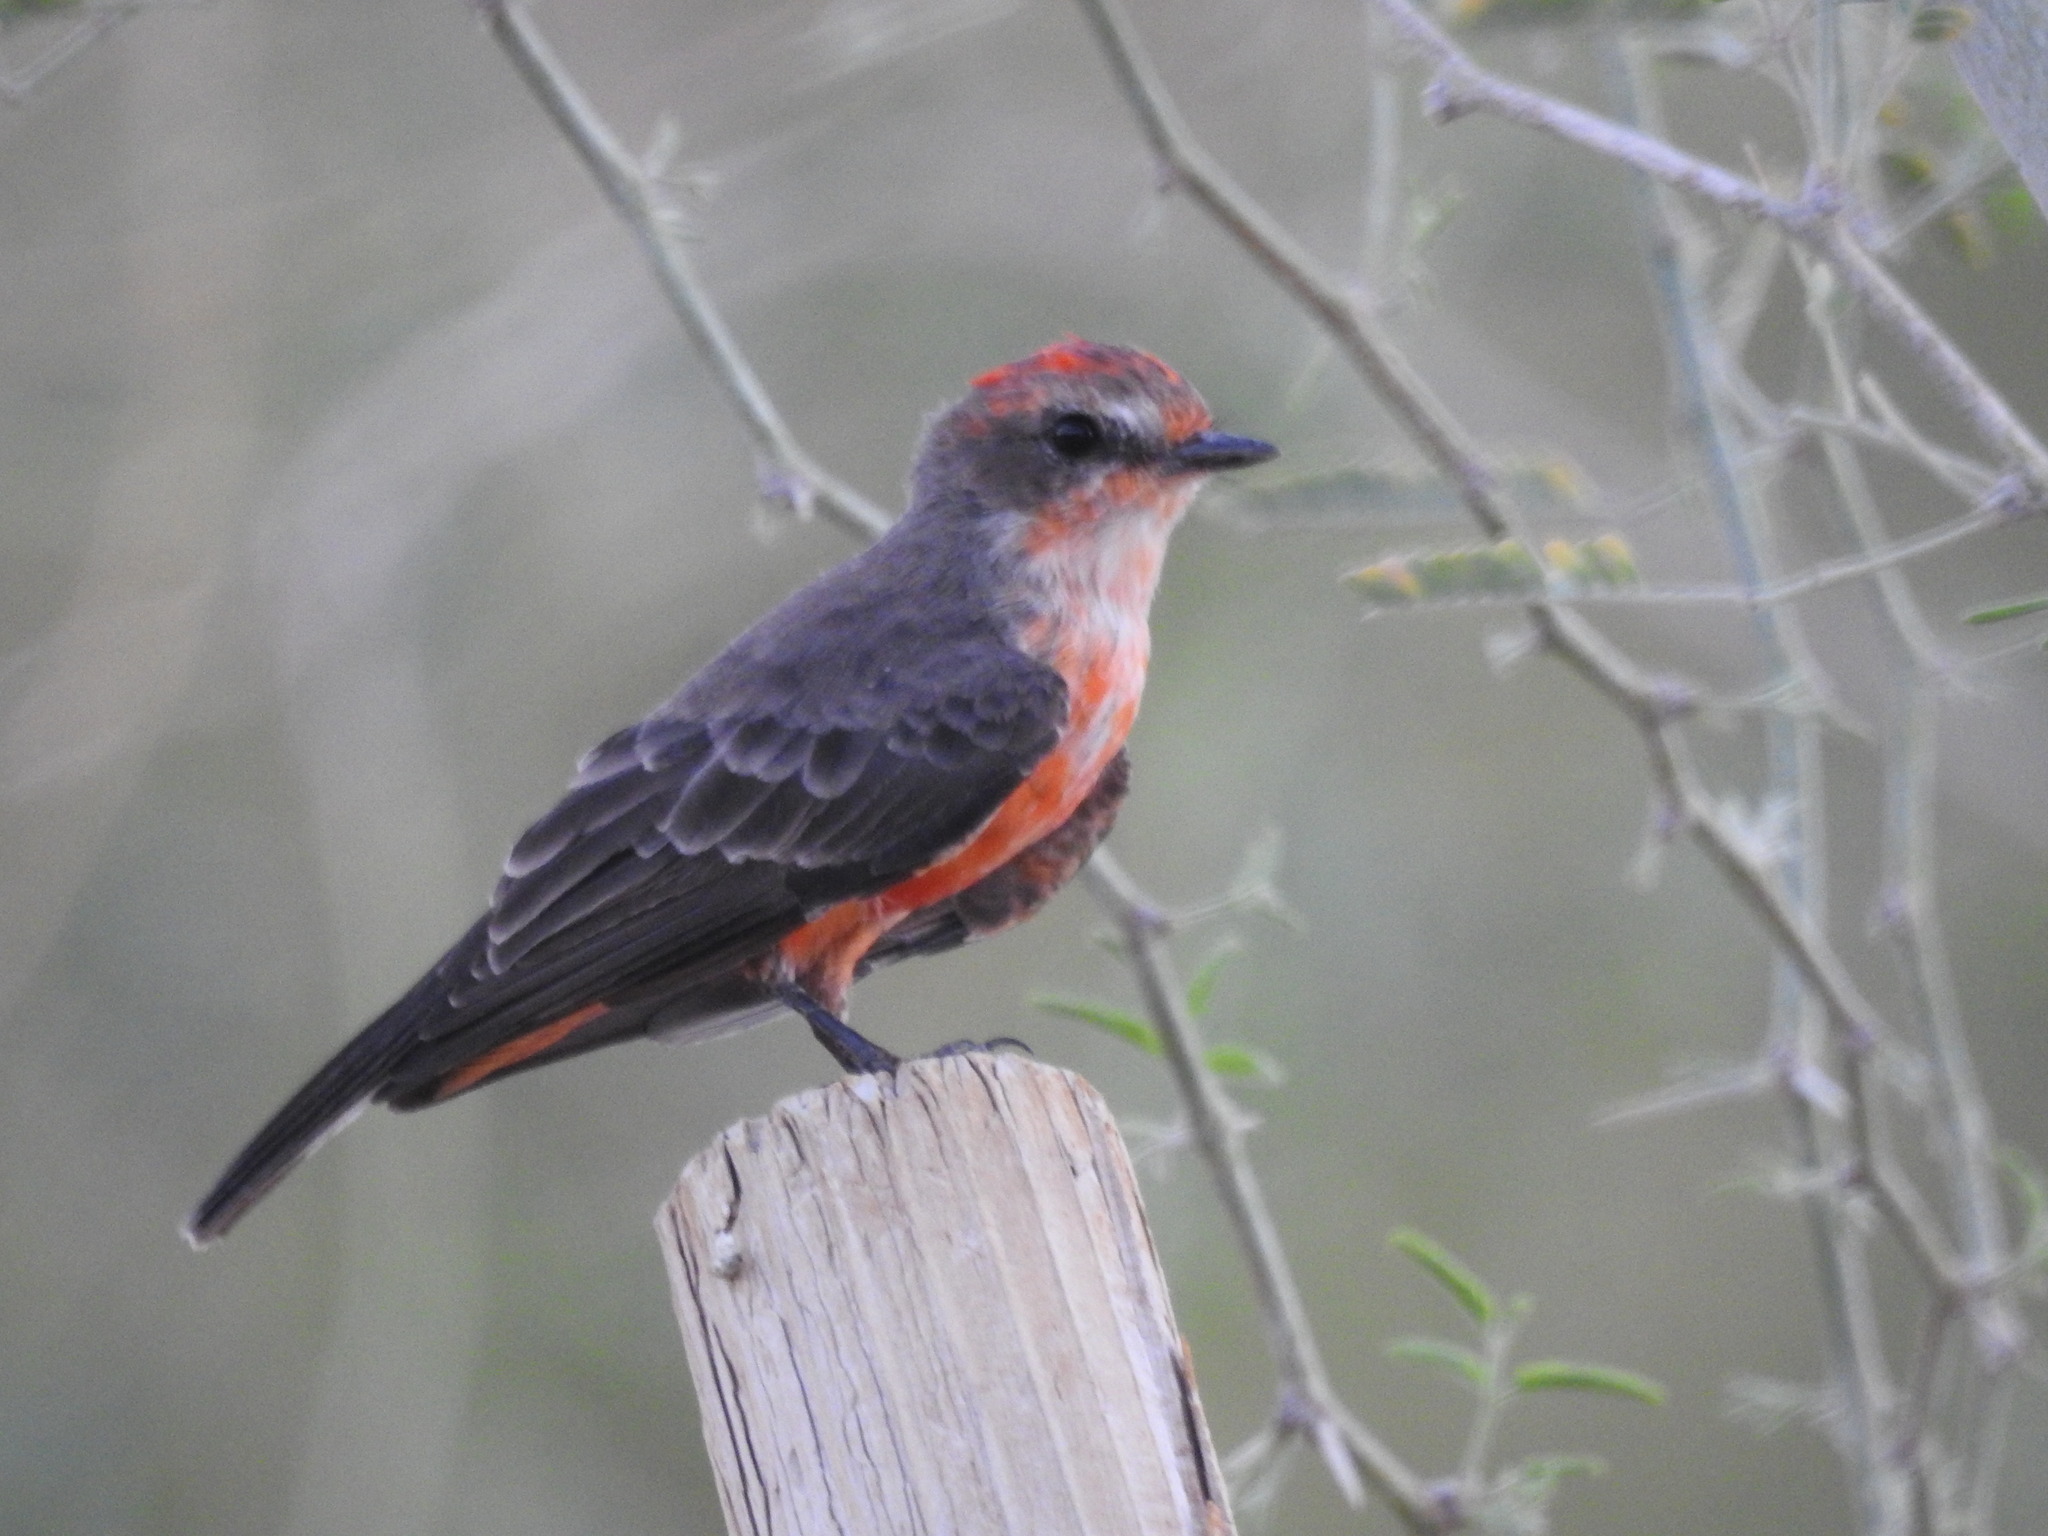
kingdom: Animalia
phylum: Chordata
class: Aves
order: Passeriformes
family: Tyrannidae
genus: Pyrocephalus
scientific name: Pyrocephalus rubinus
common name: Vermilion flycatcher
